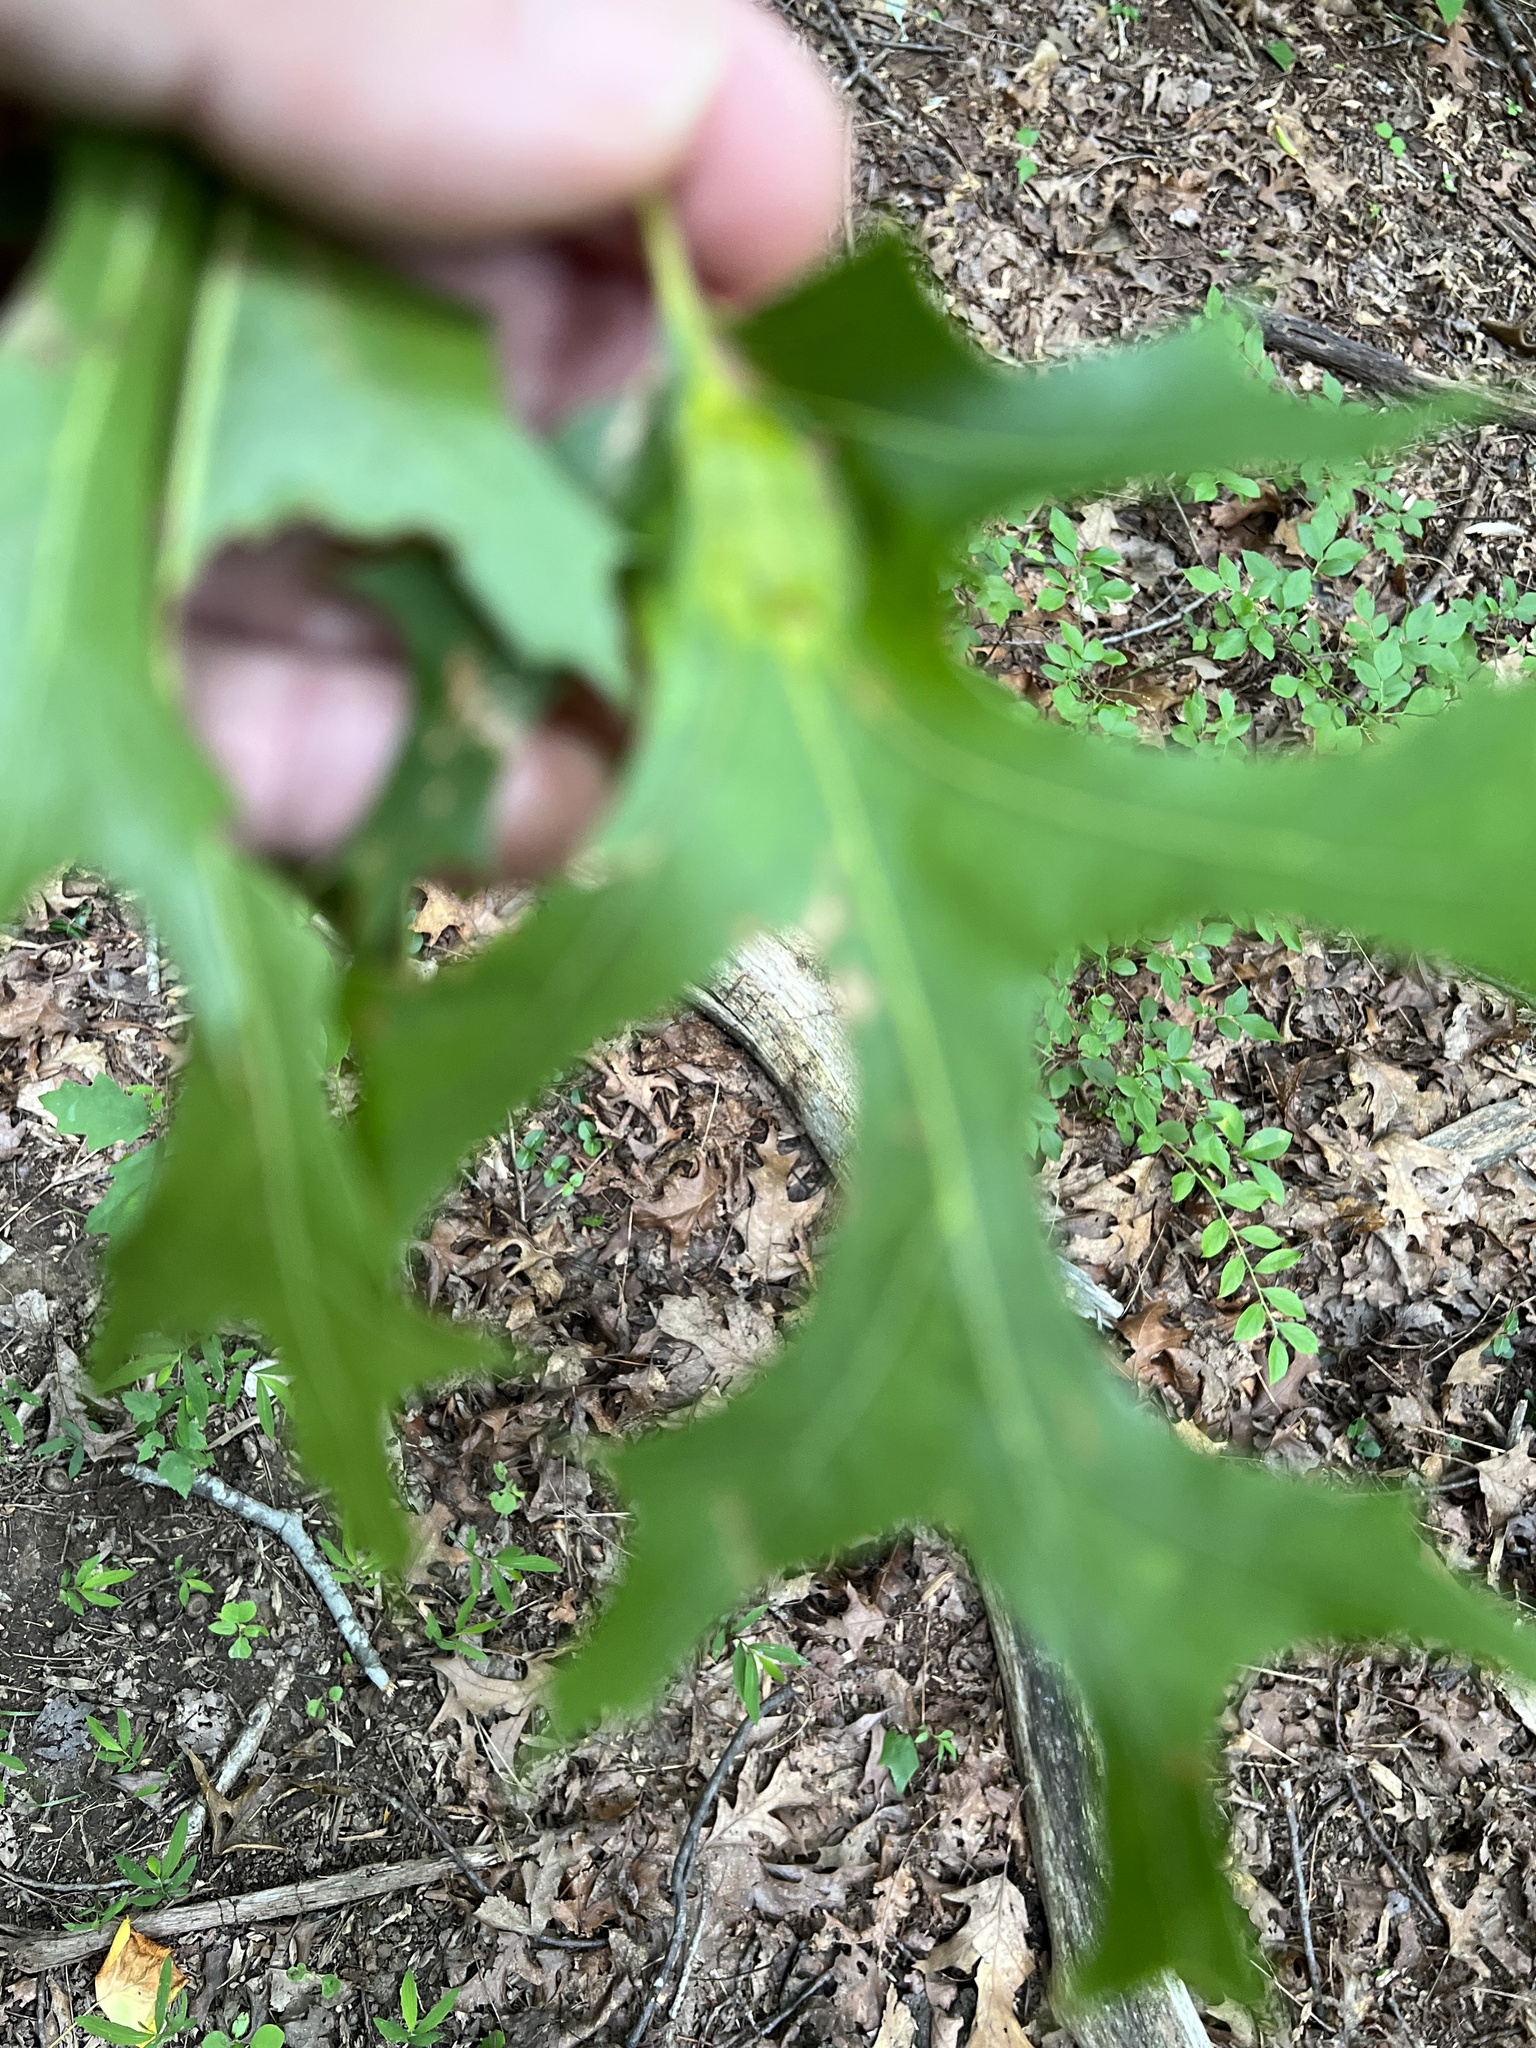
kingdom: Animalia
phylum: Arthropoda
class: Insecta
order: Hymenoptera
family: Cynipidae
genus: Melikaiella
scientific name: Melikaiella tumifica
